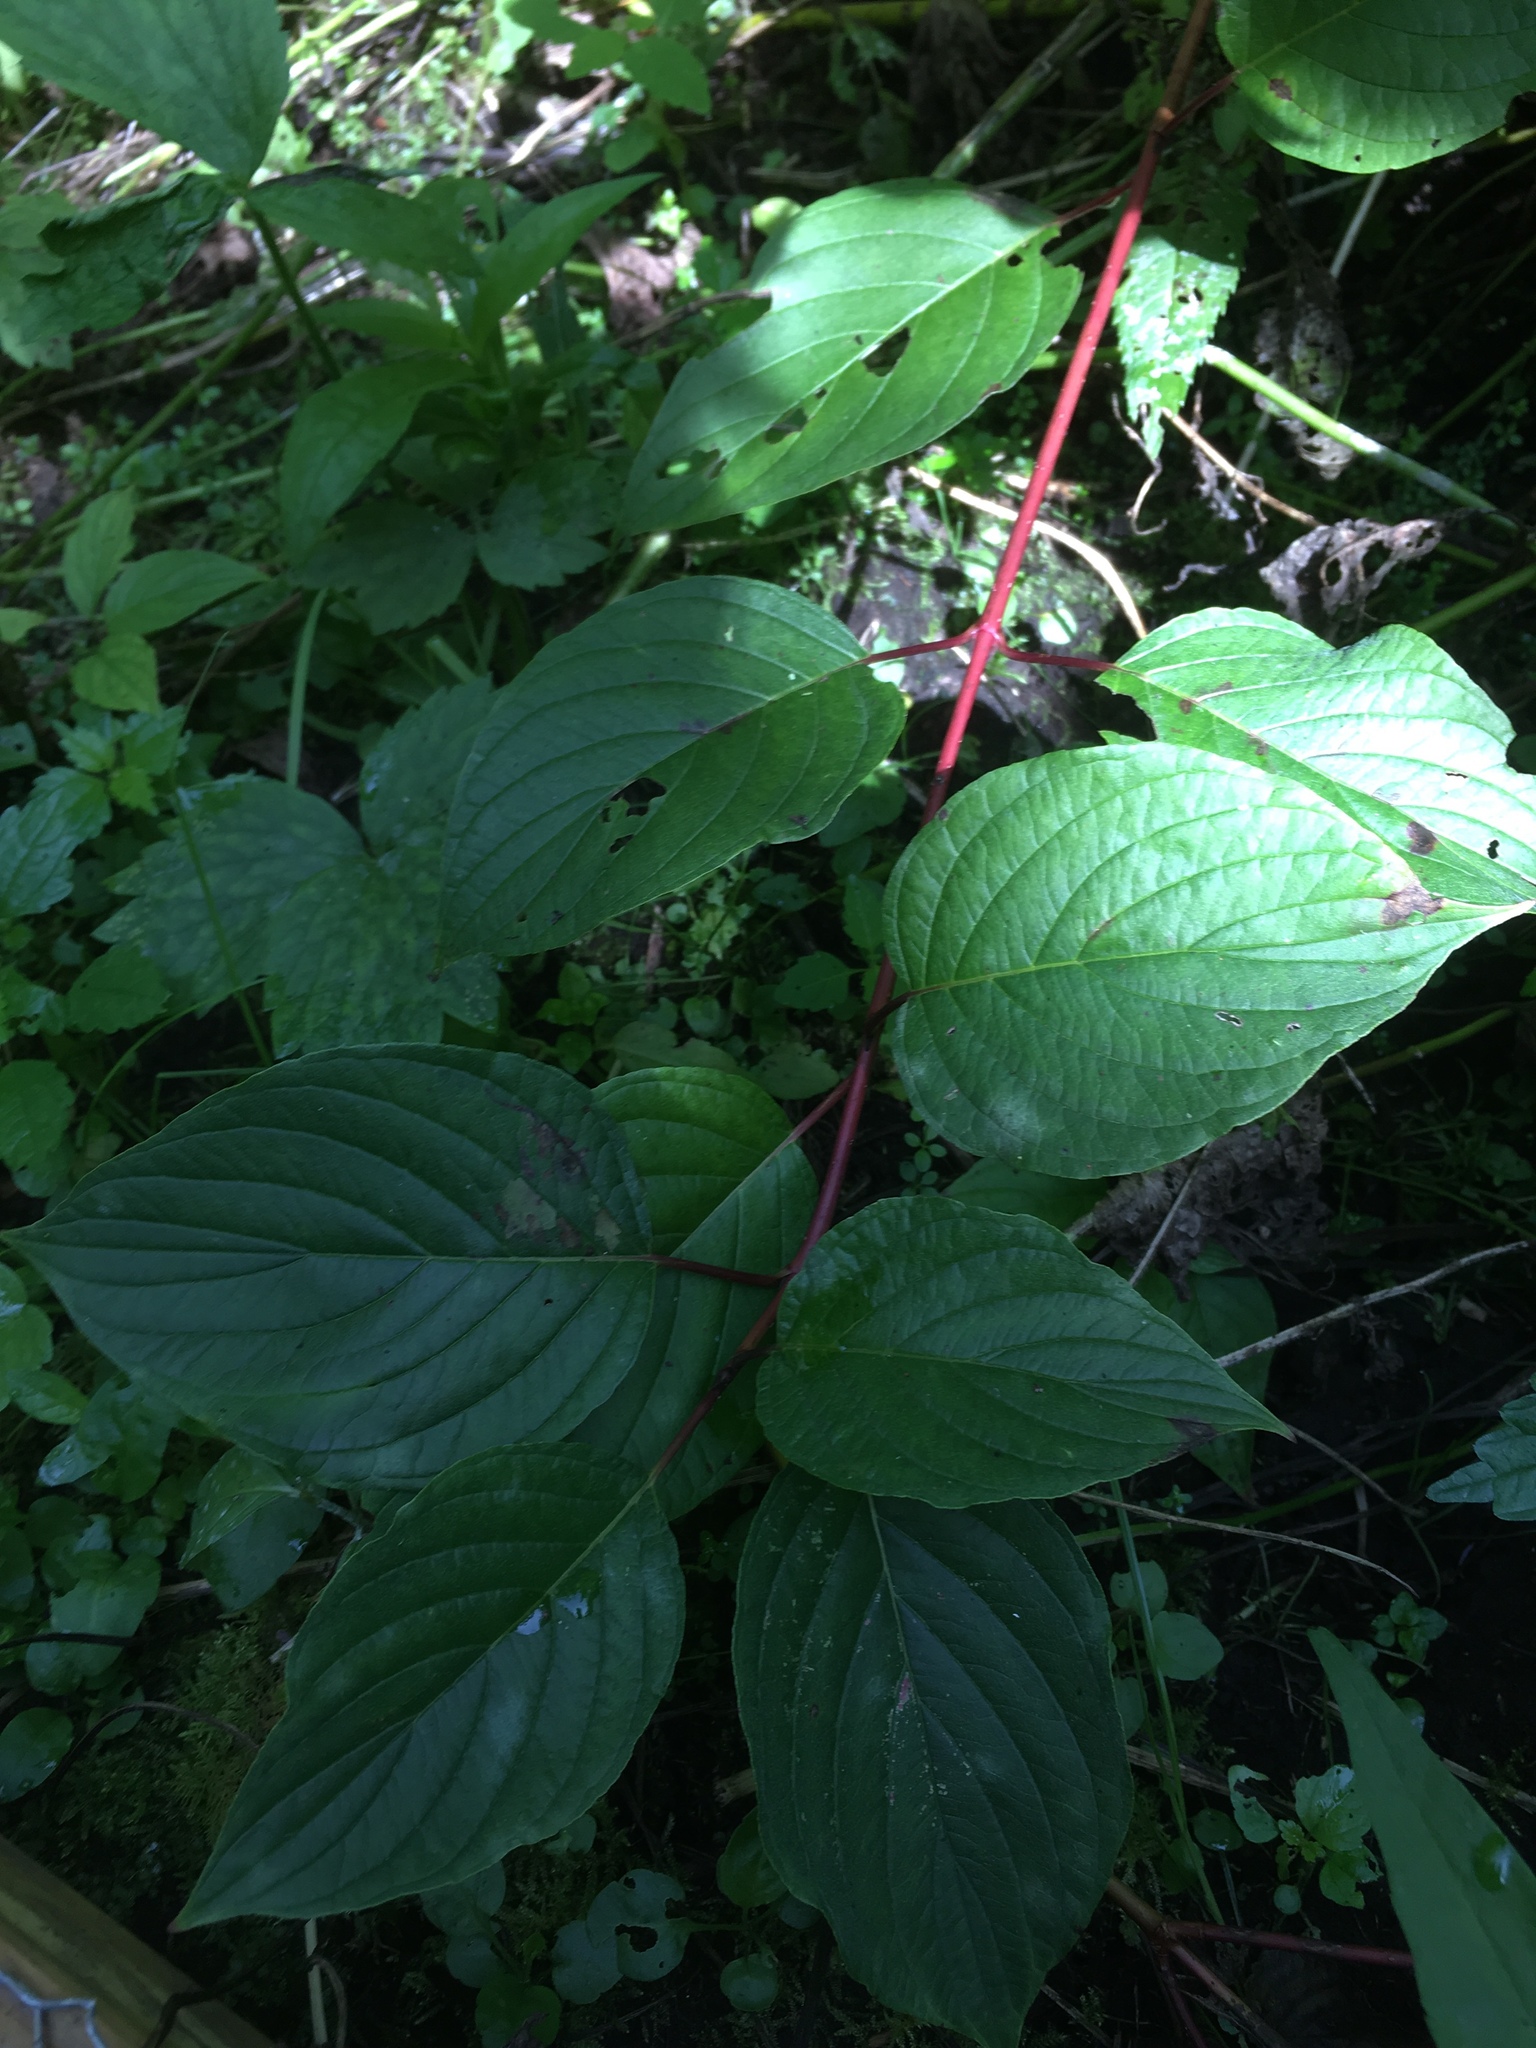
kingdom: Plantae
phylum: Tracheophyta
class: Magnoliopsida
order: Cornales
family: Cornaceae
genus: Cornus
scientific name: Cornus sericea
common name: Red-osier dogwood
